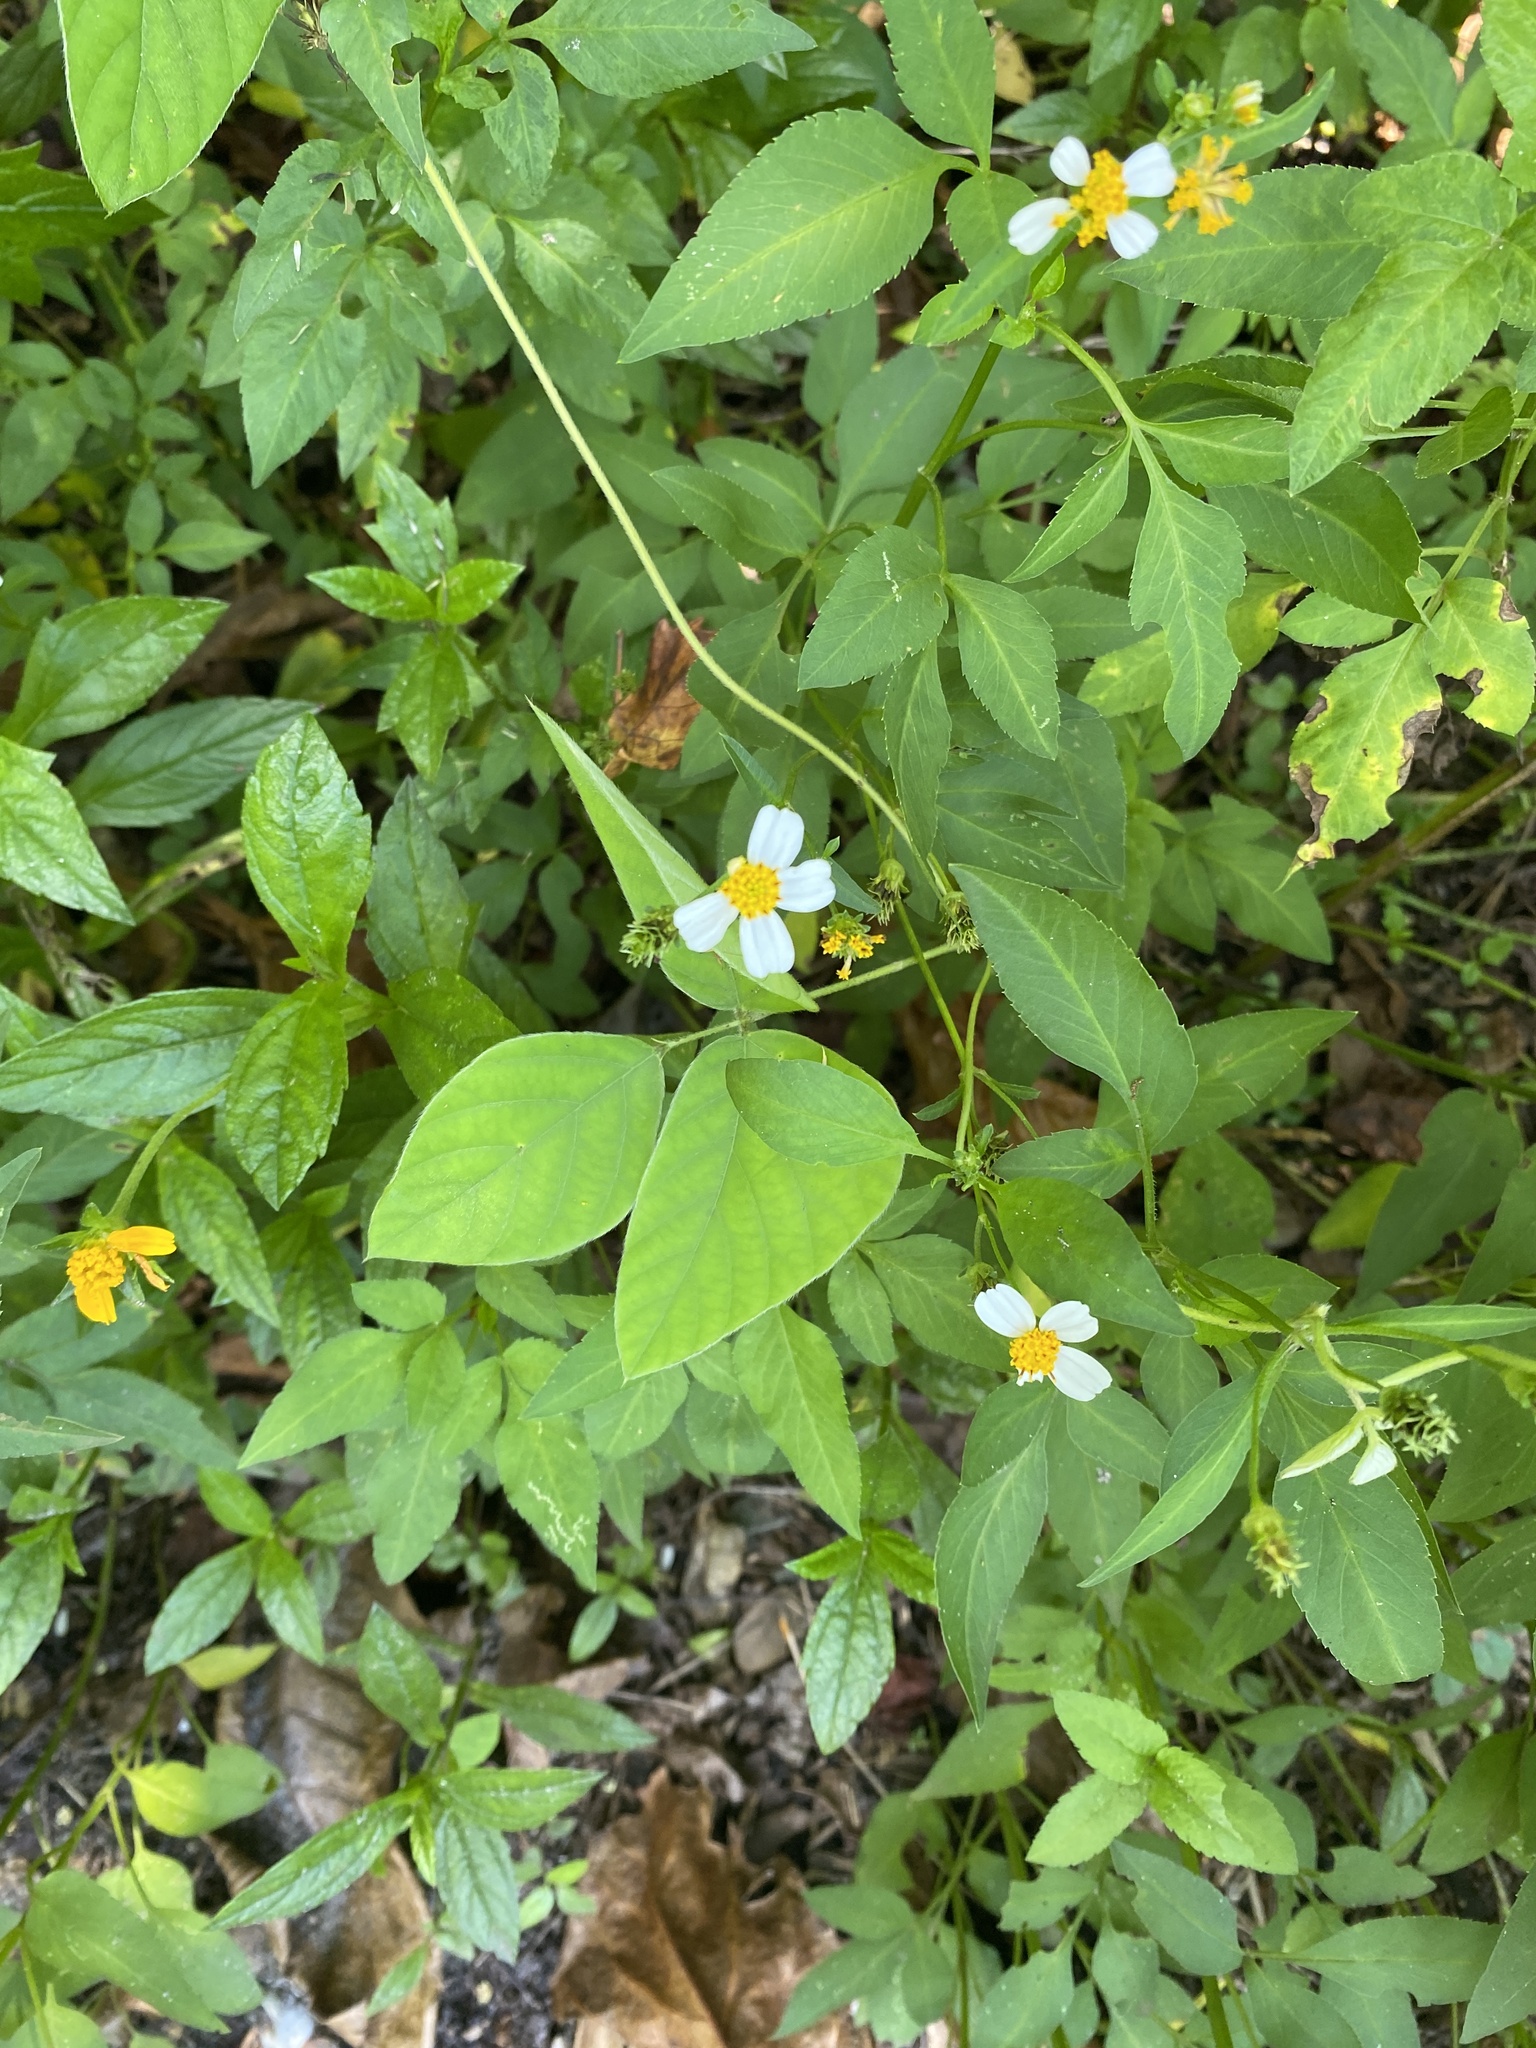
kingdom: Plantae
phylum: Tracheophyta
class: Magnoliopsida
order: Asterales
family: Asteraceae
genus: Bidens
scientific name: Bidens alba
